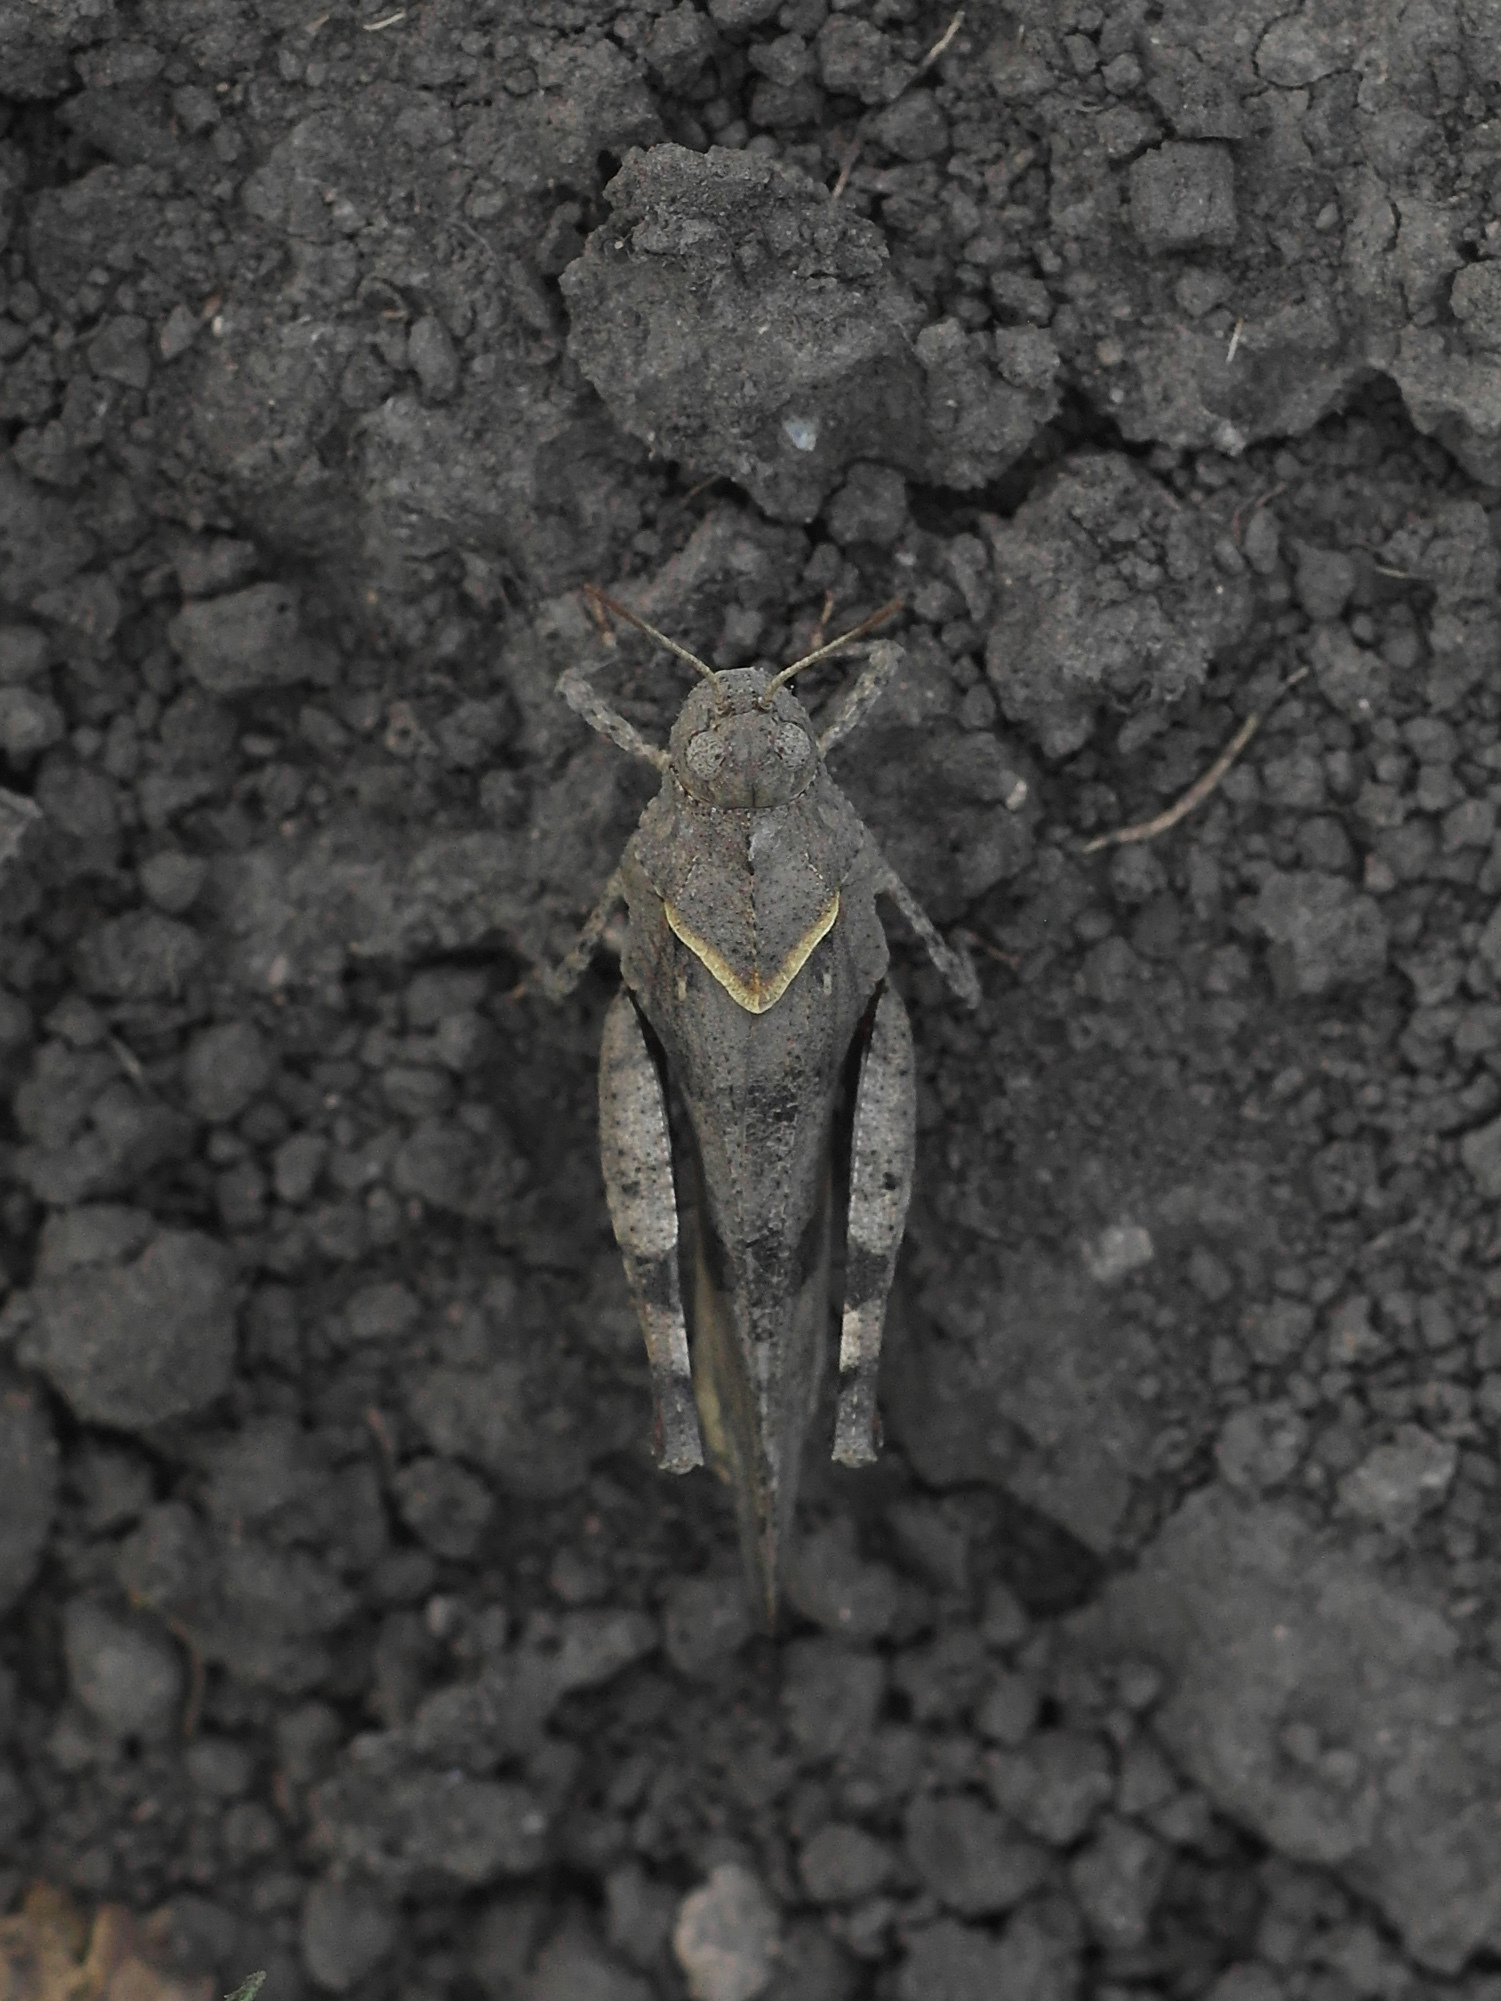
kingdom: Animalia
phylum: Arthropoda
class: Insecta
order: Orthoptera
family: Acrididae
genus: Oedipoda
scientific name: Oedipoda caerulescens
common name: Blue-winged grasshopper
